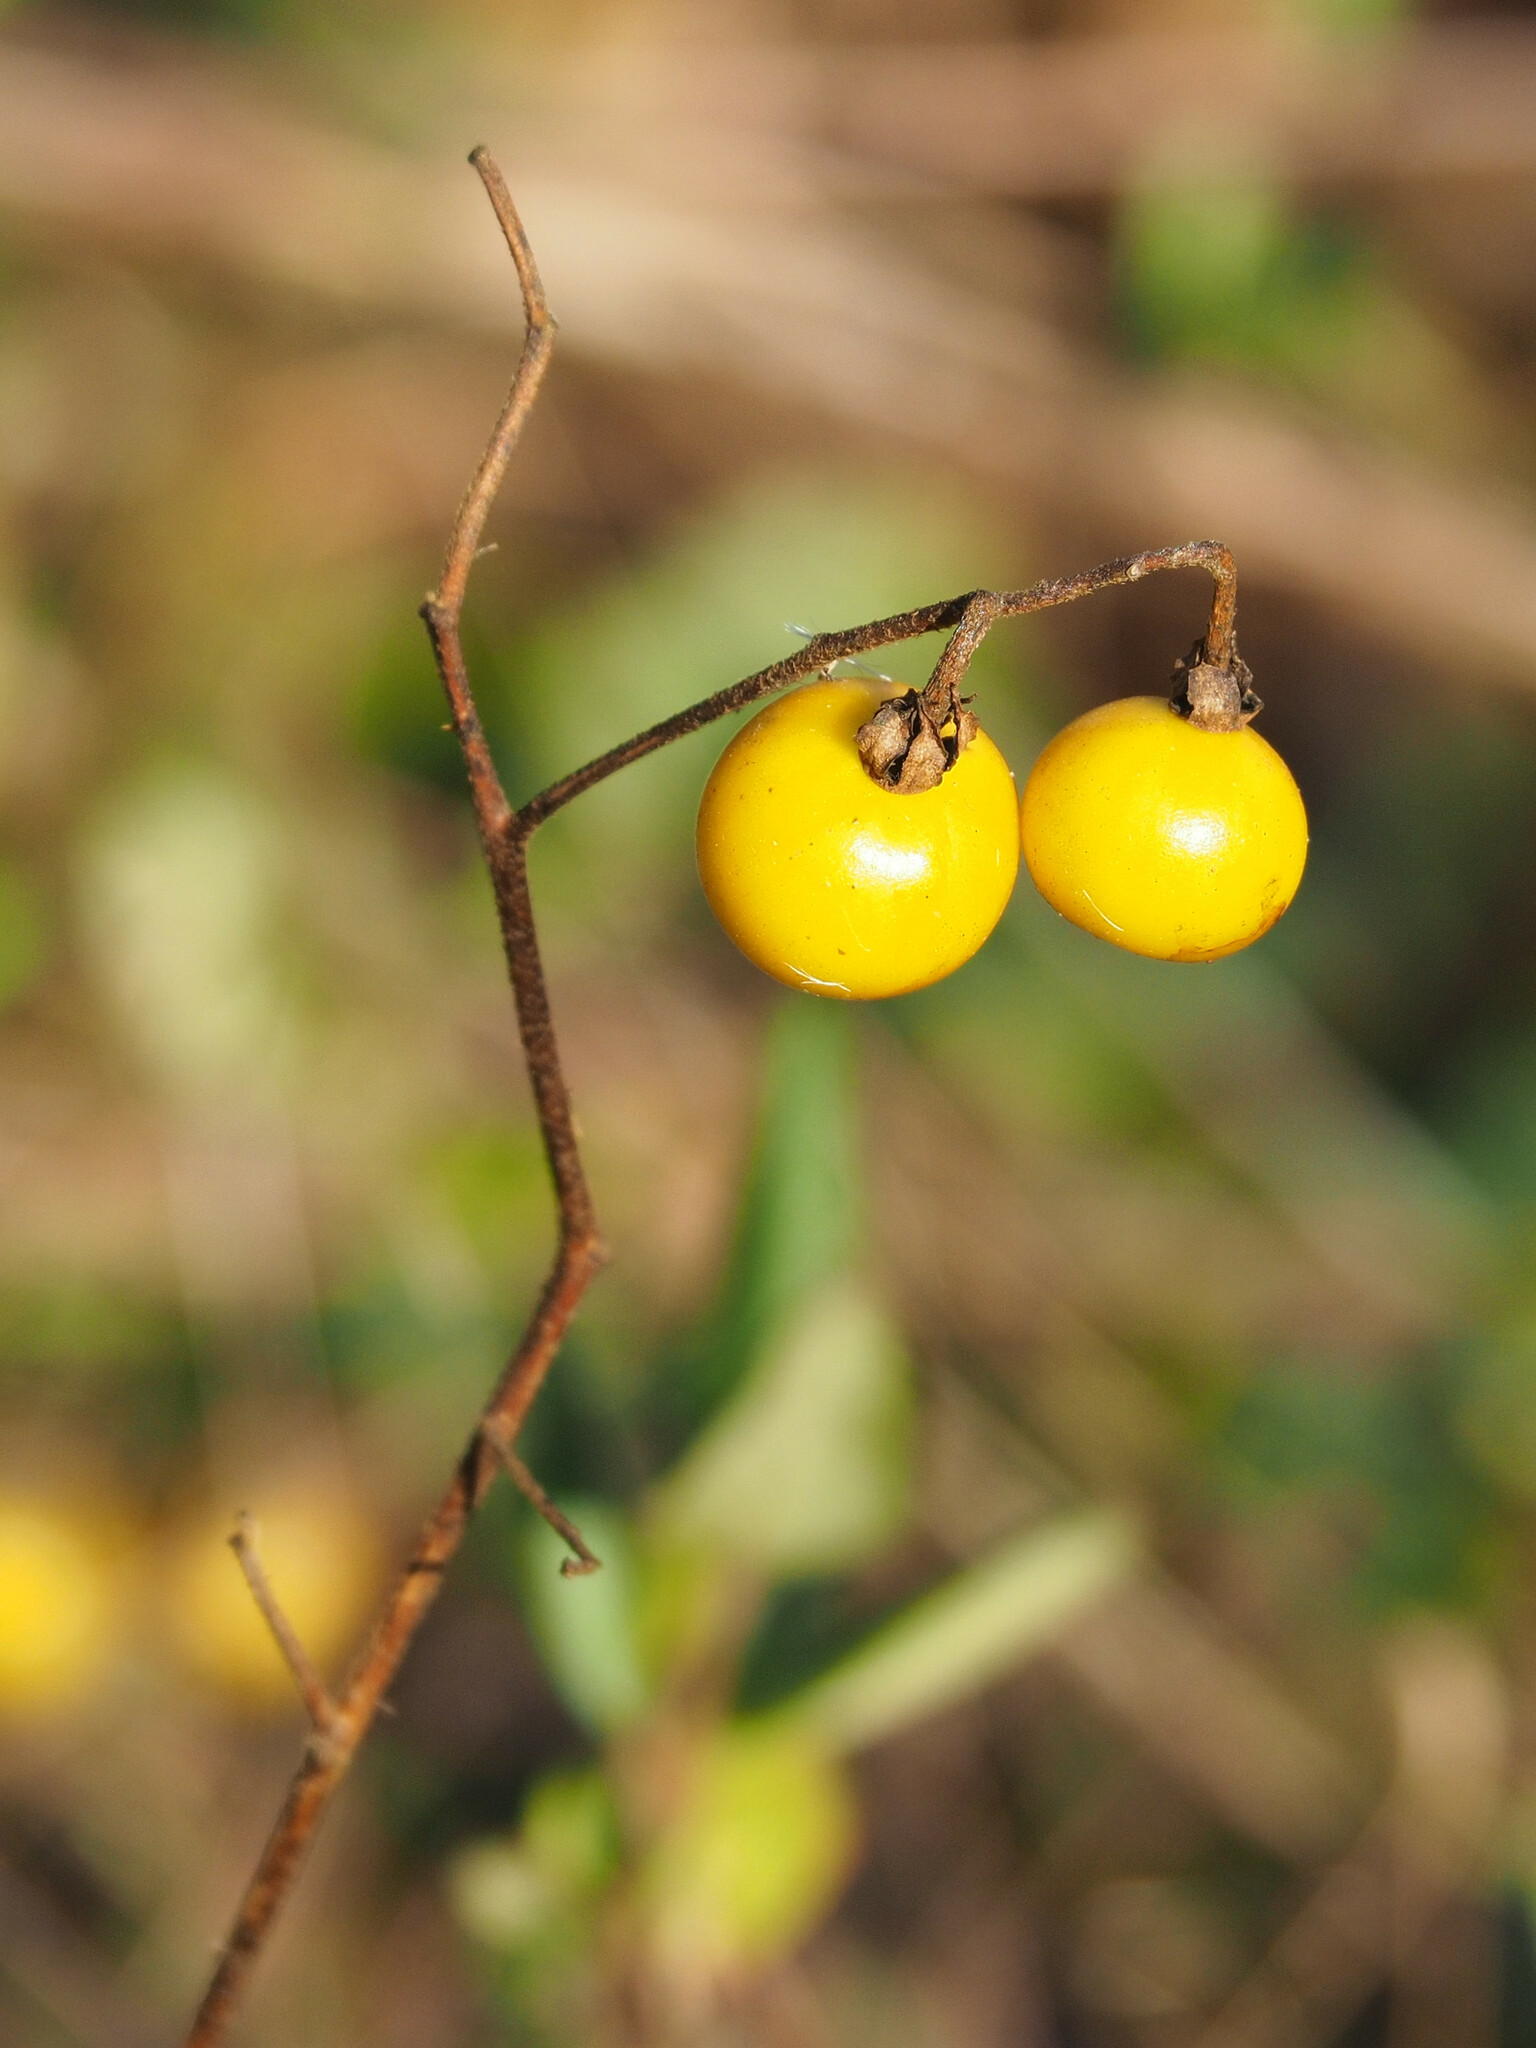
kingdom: Plantae
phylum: Tracheophyta
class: Magnoliopsida
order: Solanales
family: Solanaceae
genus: Solanum
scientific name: Solanum carolinense
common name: Horse-nettle
